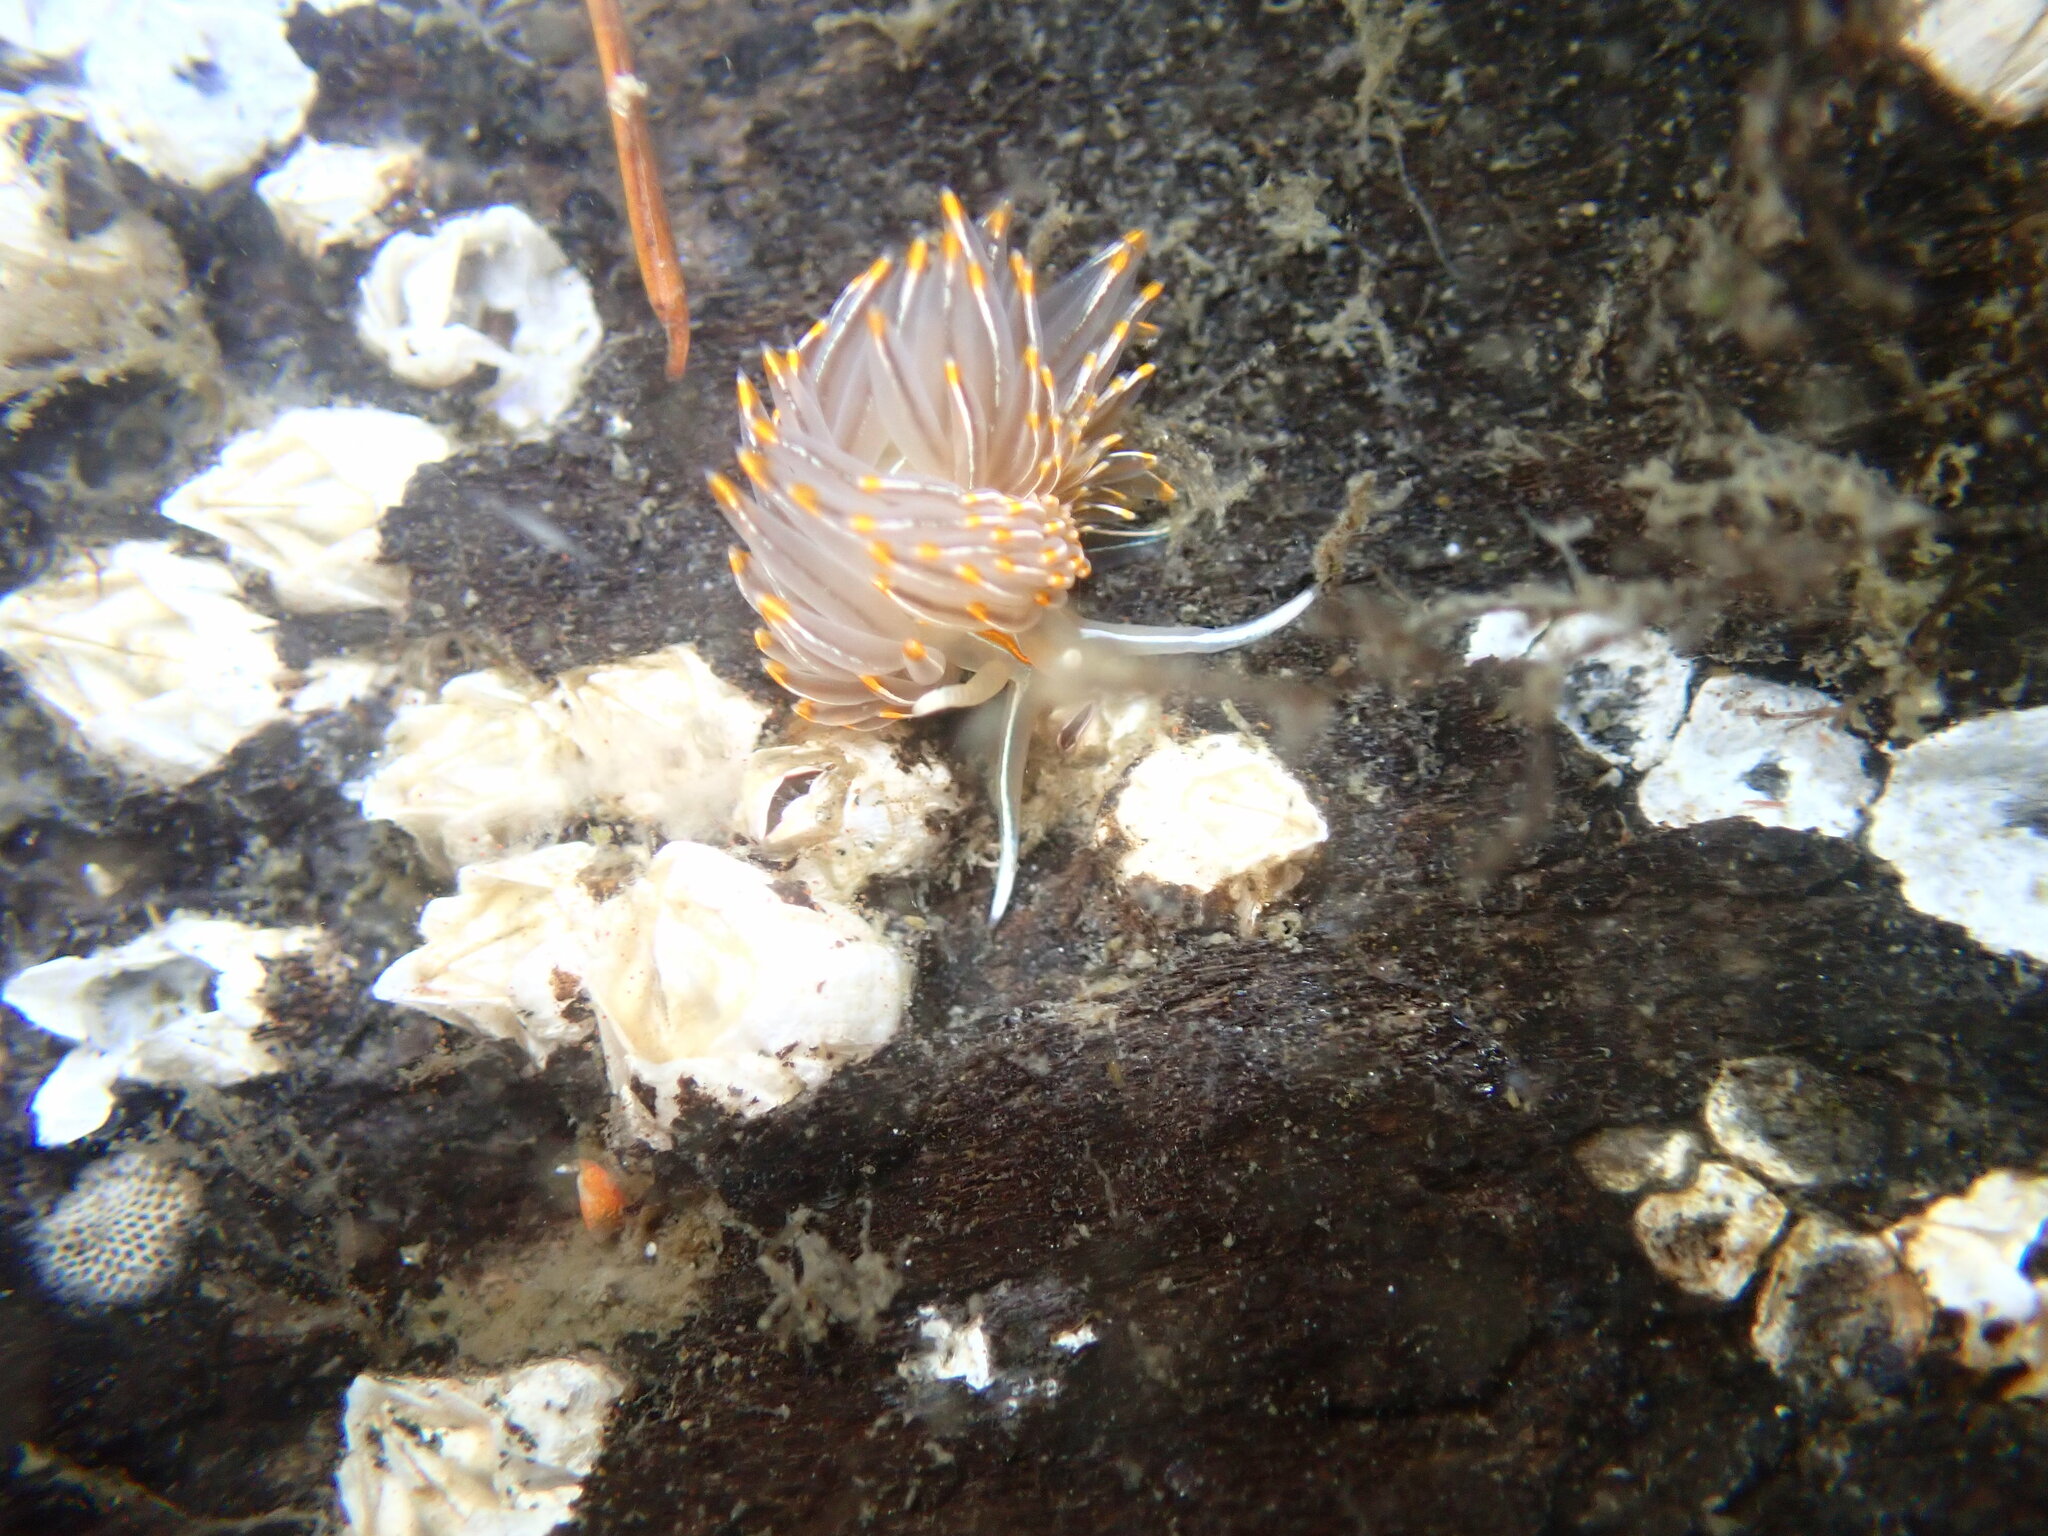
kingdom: Animalia
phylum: Mollusca
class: Gastropoda
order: Nudibranchia
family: Myrrhinidae
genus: Hermissenda
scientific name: Hermissenda crassicornis
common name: Hermissenda
